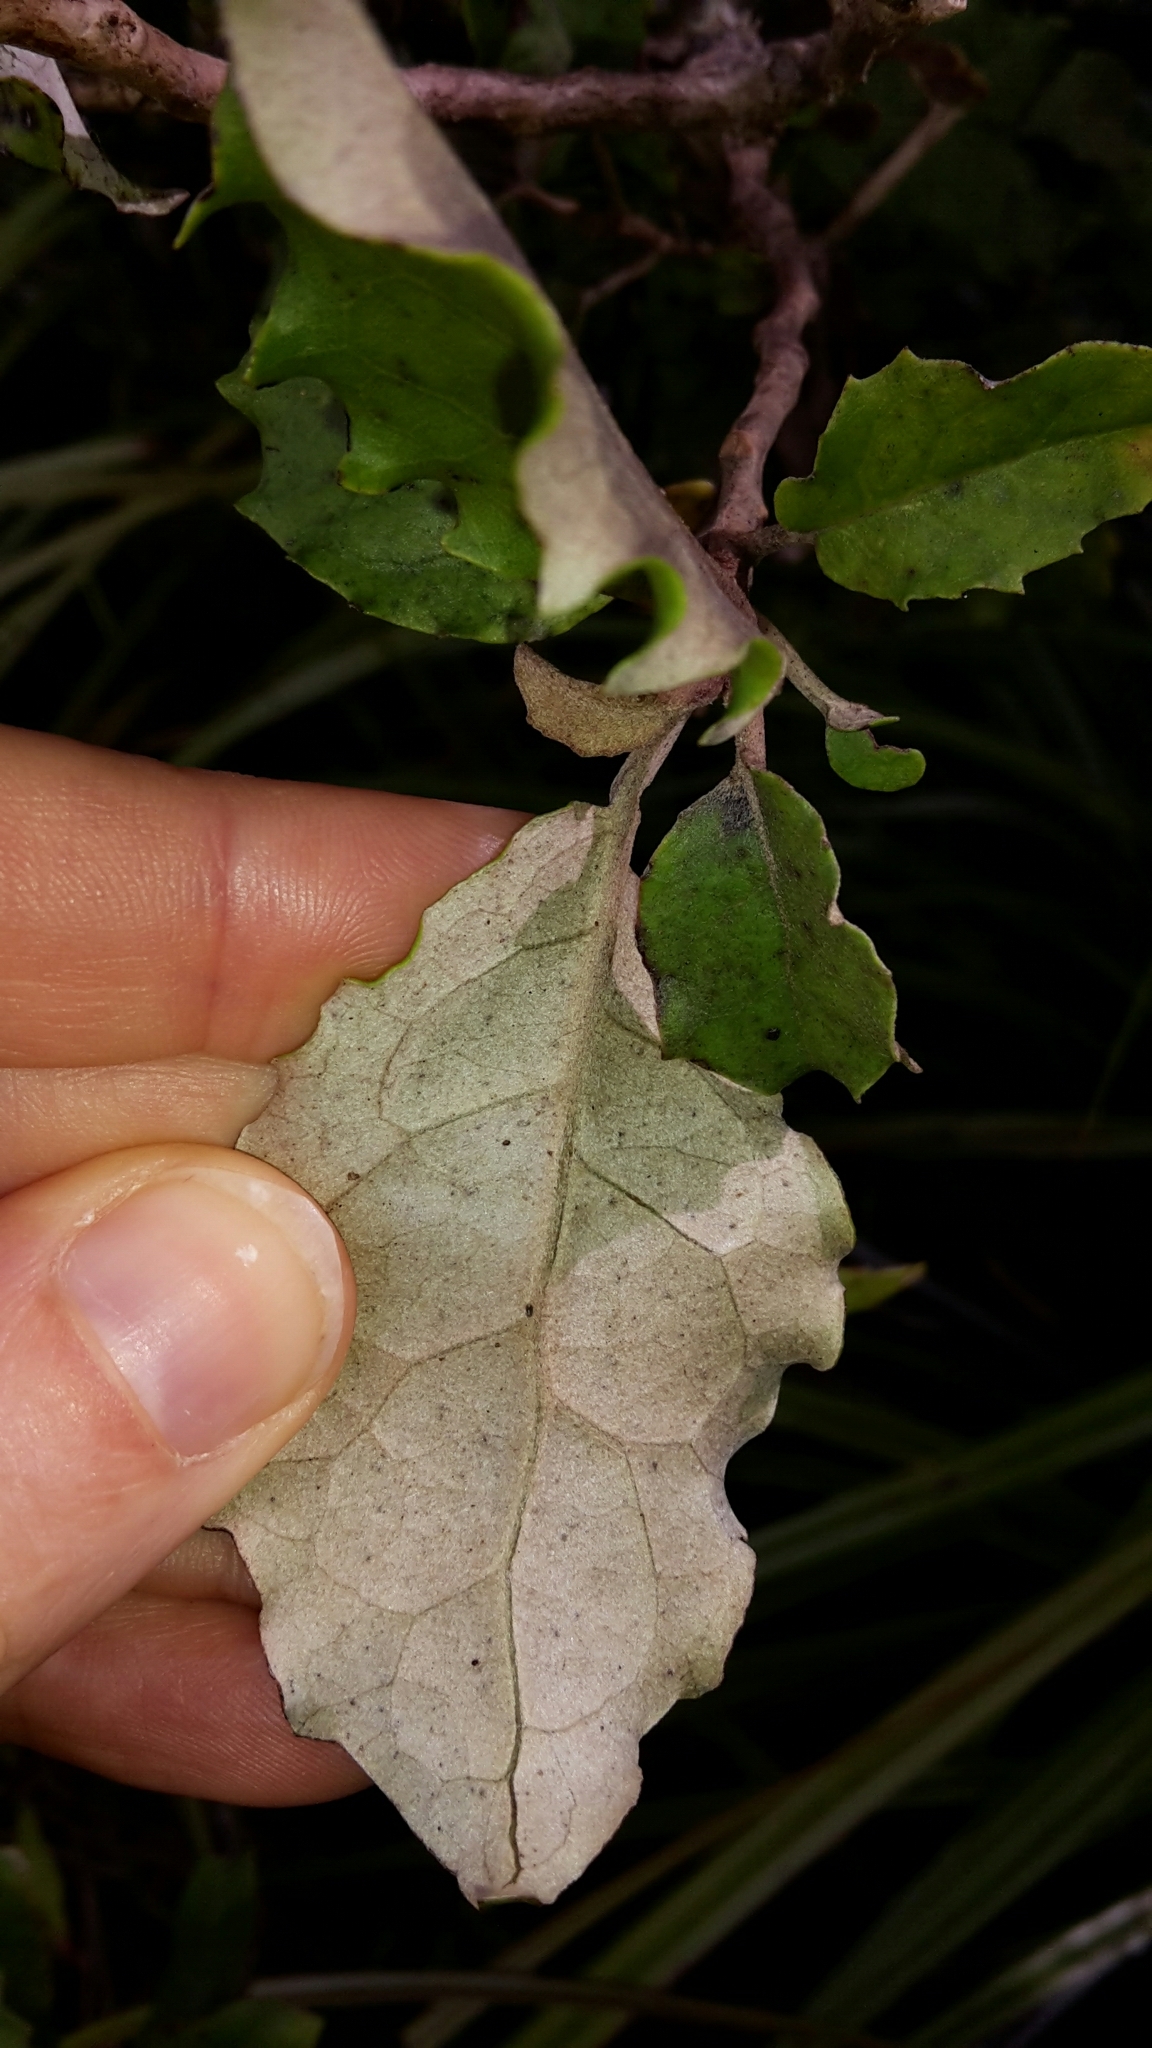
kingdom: Plantae
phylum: Tracheophyta
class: Magnoliopsida
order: Asterales
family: Asteraceae
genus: Olearia
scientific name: Olearia rani
